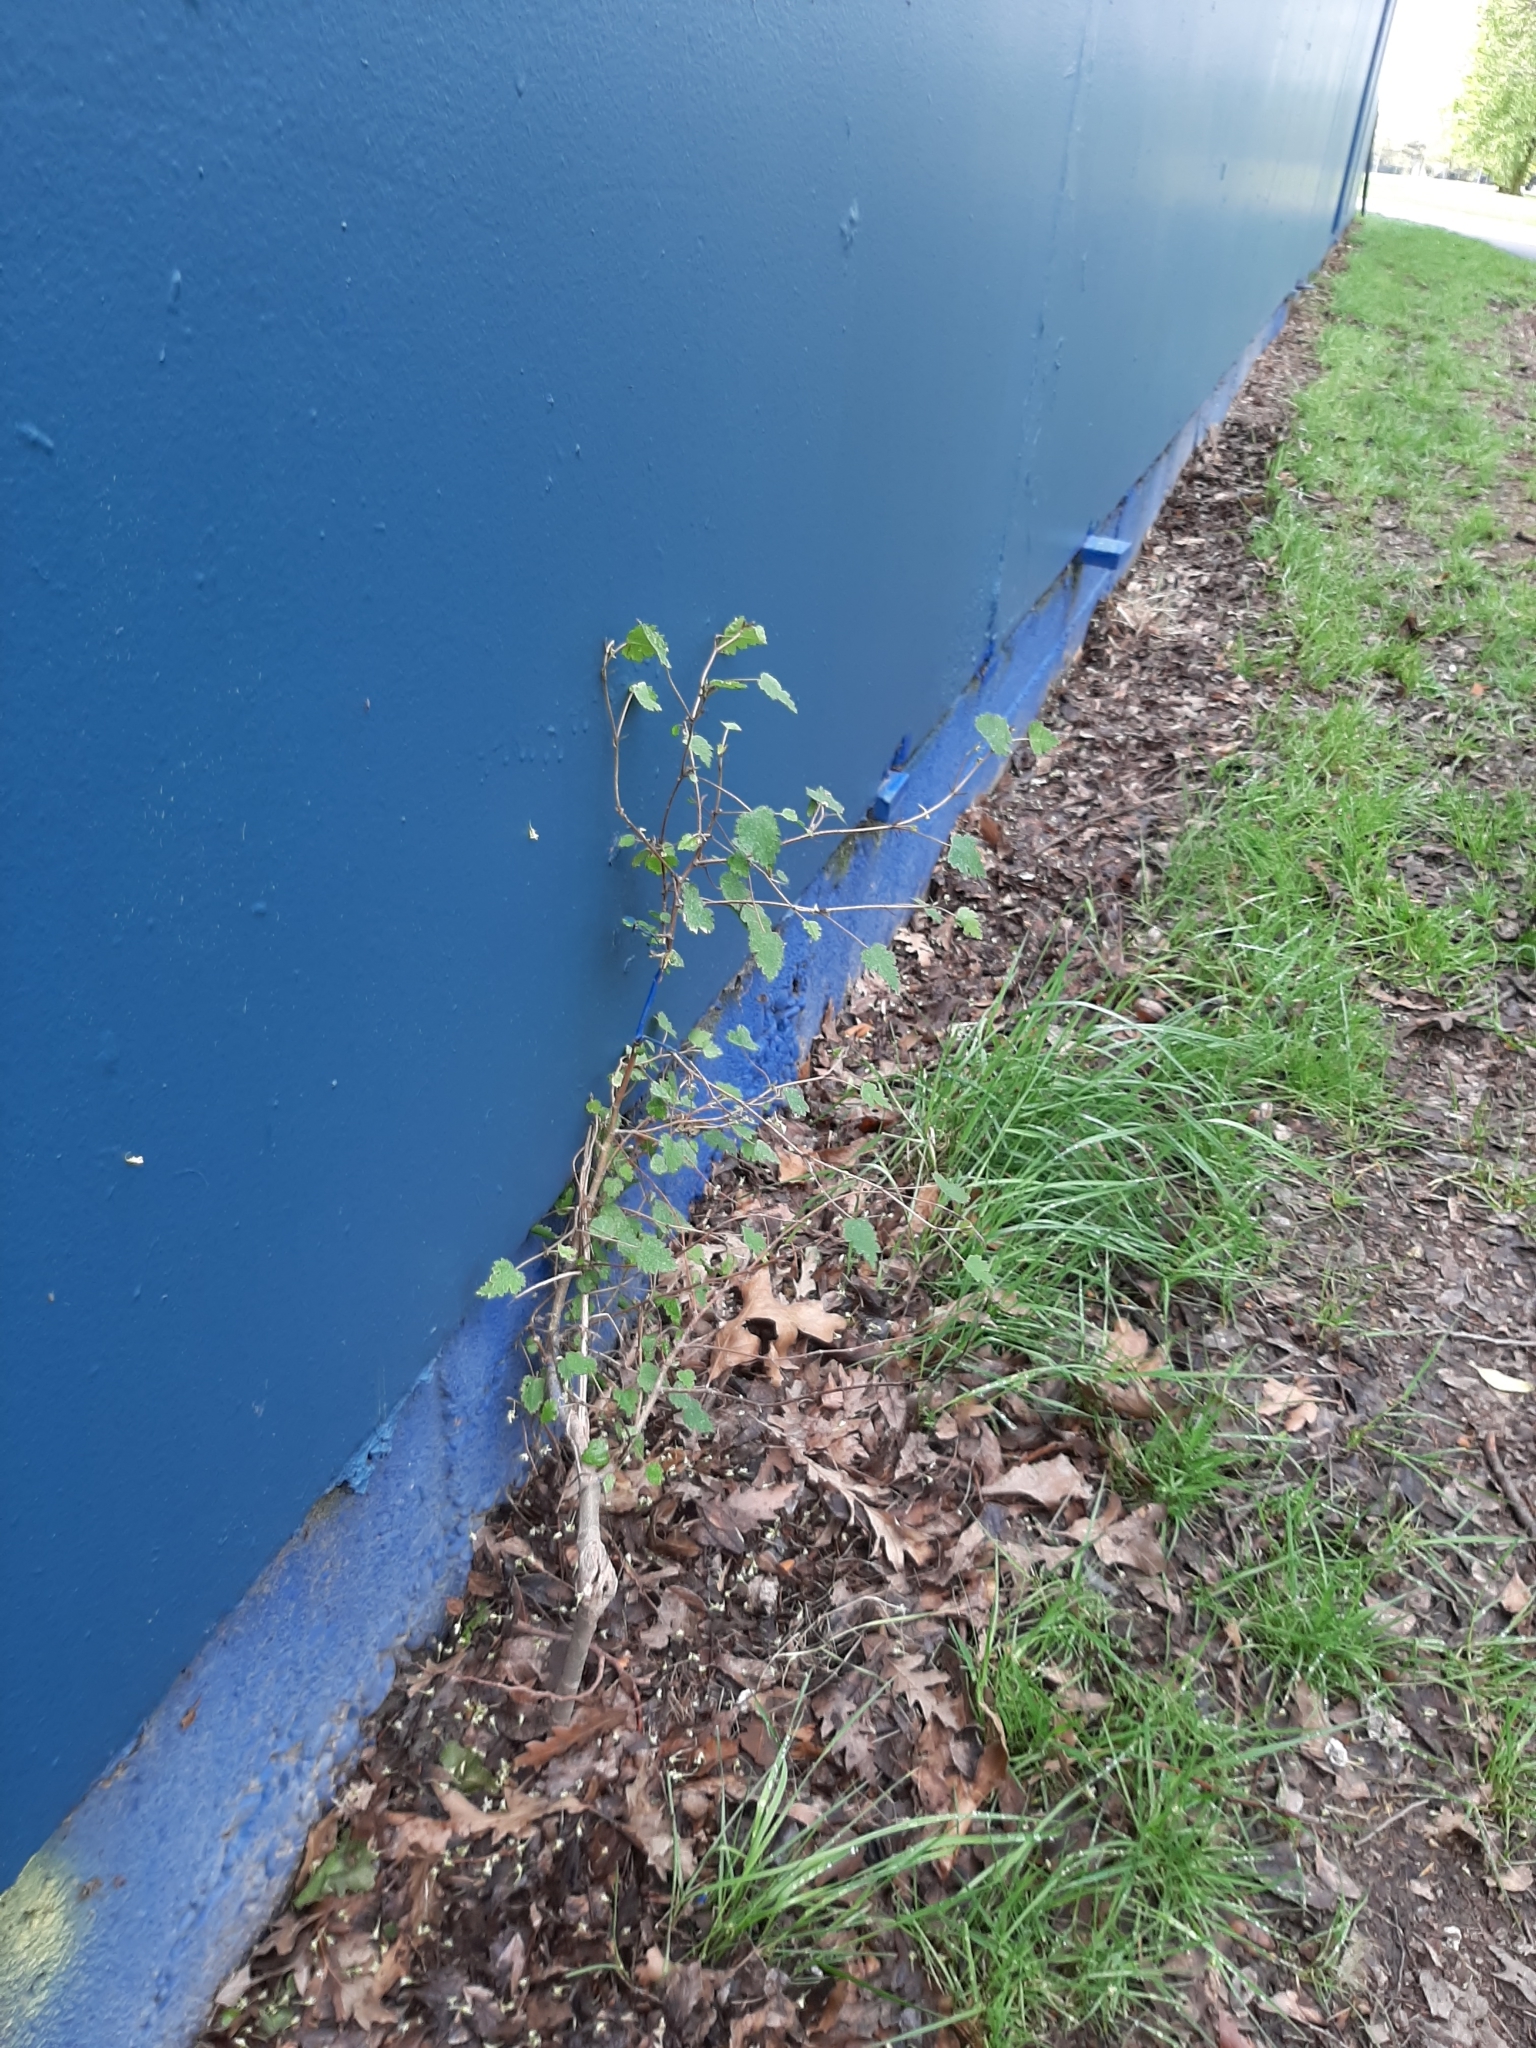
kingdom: Plantae
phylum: Tracheophyta
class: Magnoliopsida
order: Malvales
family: Malvaceae
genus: Plagianthus
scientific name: Plagianthus regius
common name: Manatu
